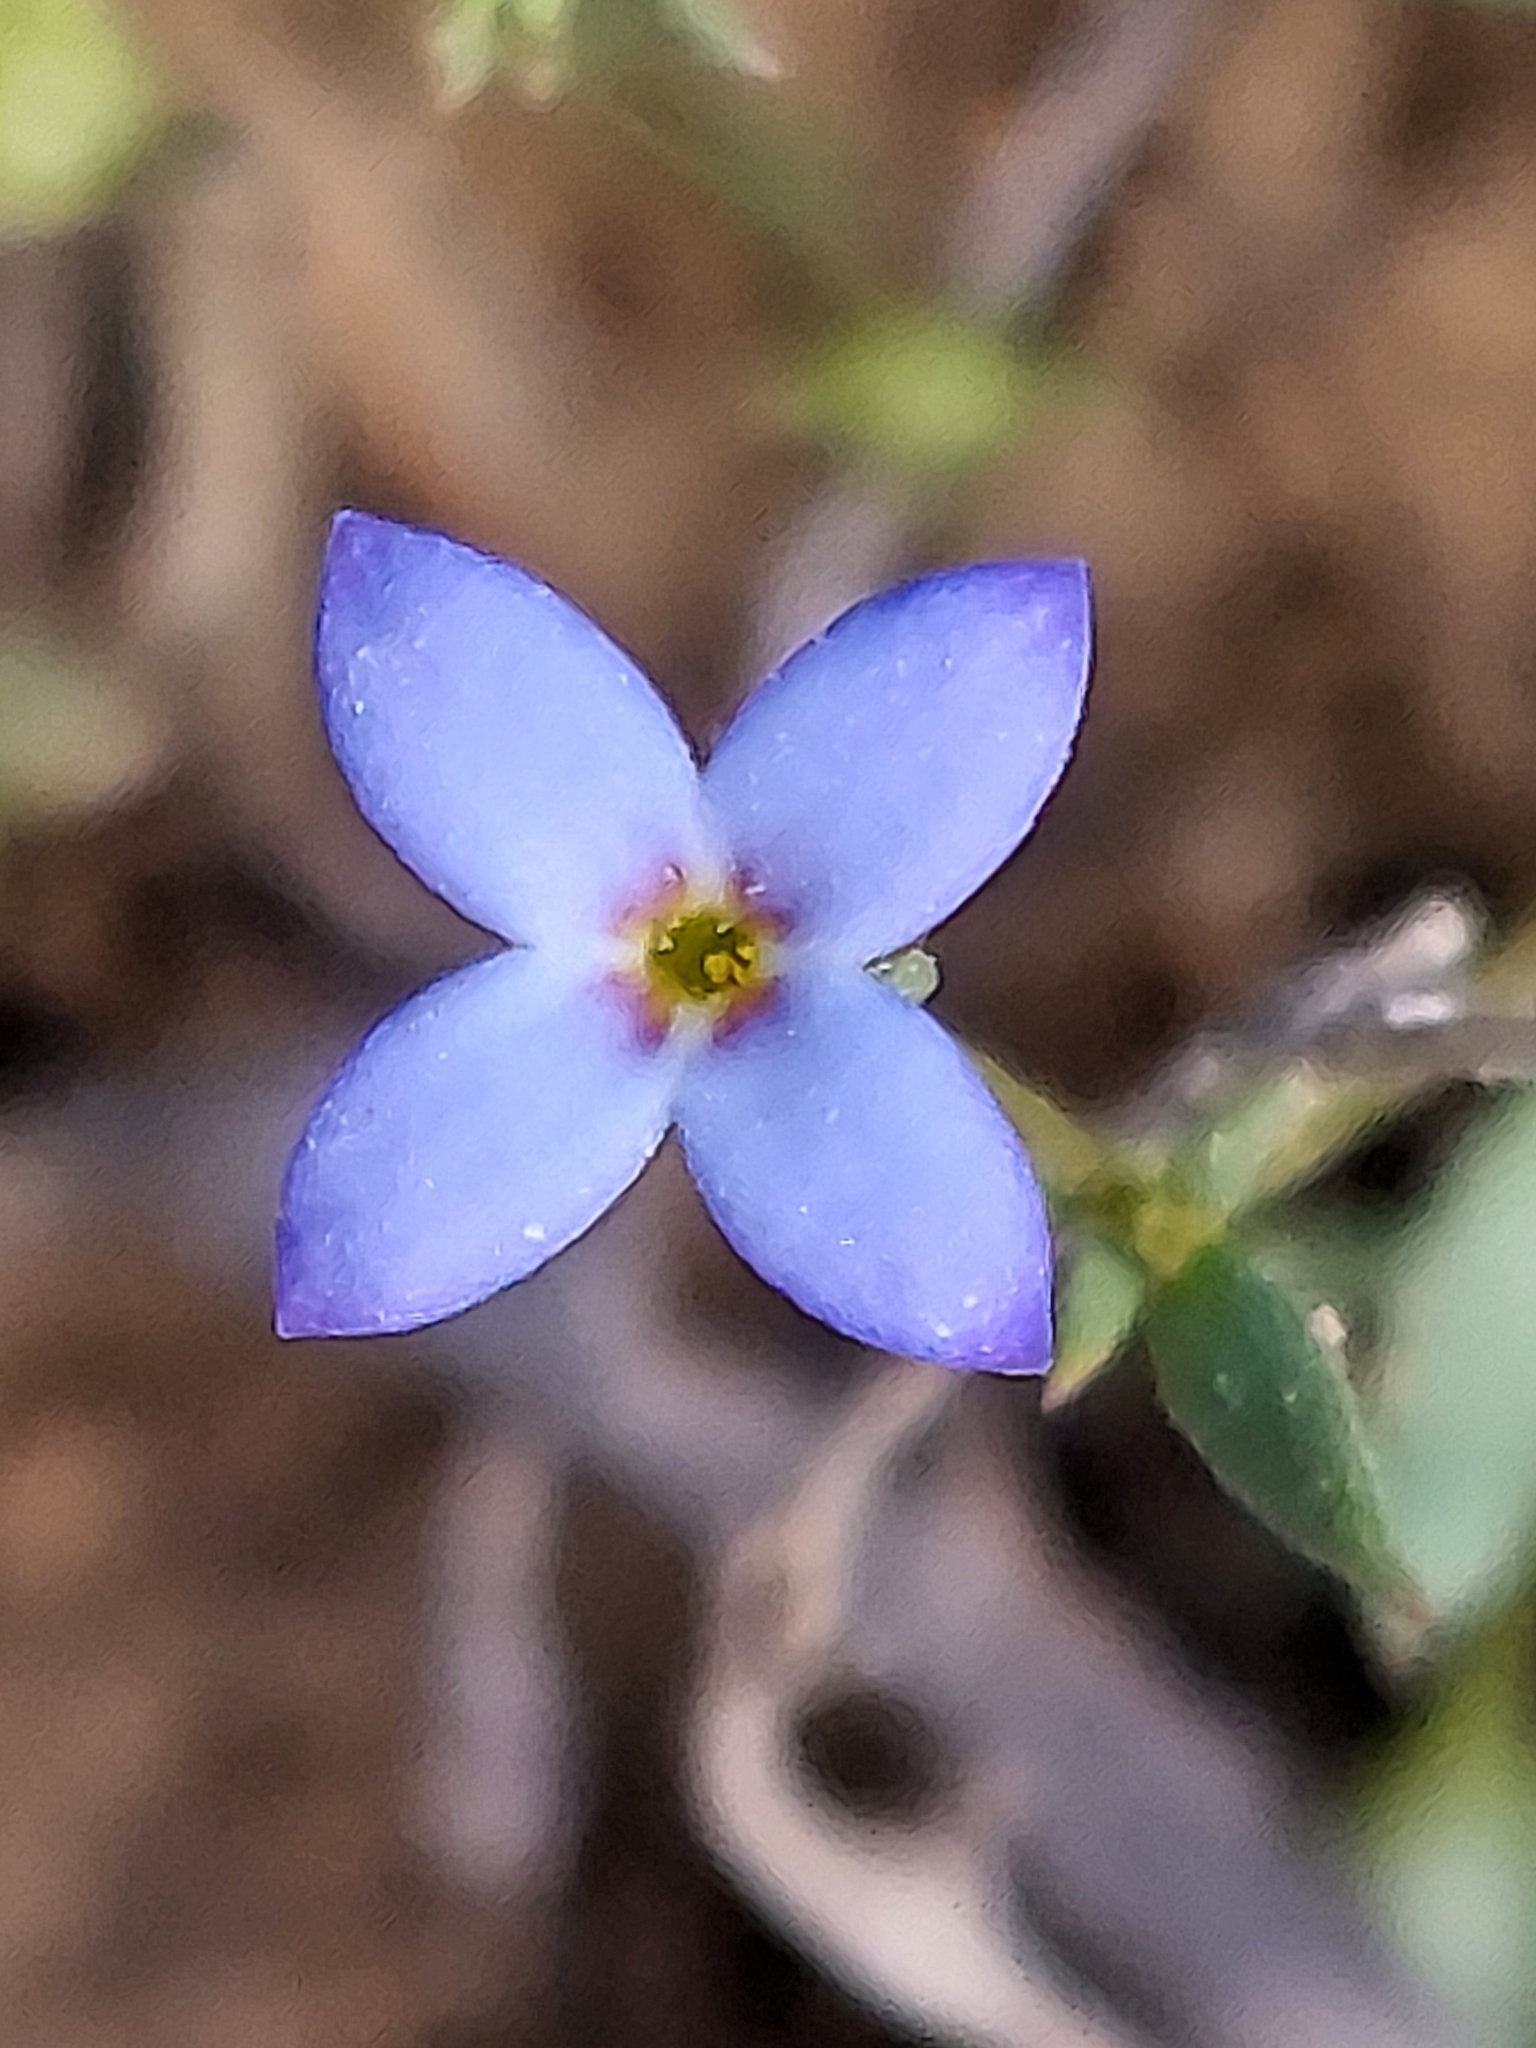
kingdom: Plantae
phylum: Tracheophyta
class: Magnoliopsida
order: Gentianales
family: Rubiaceae
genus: Houstonia
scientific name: Houstonia pusilla
